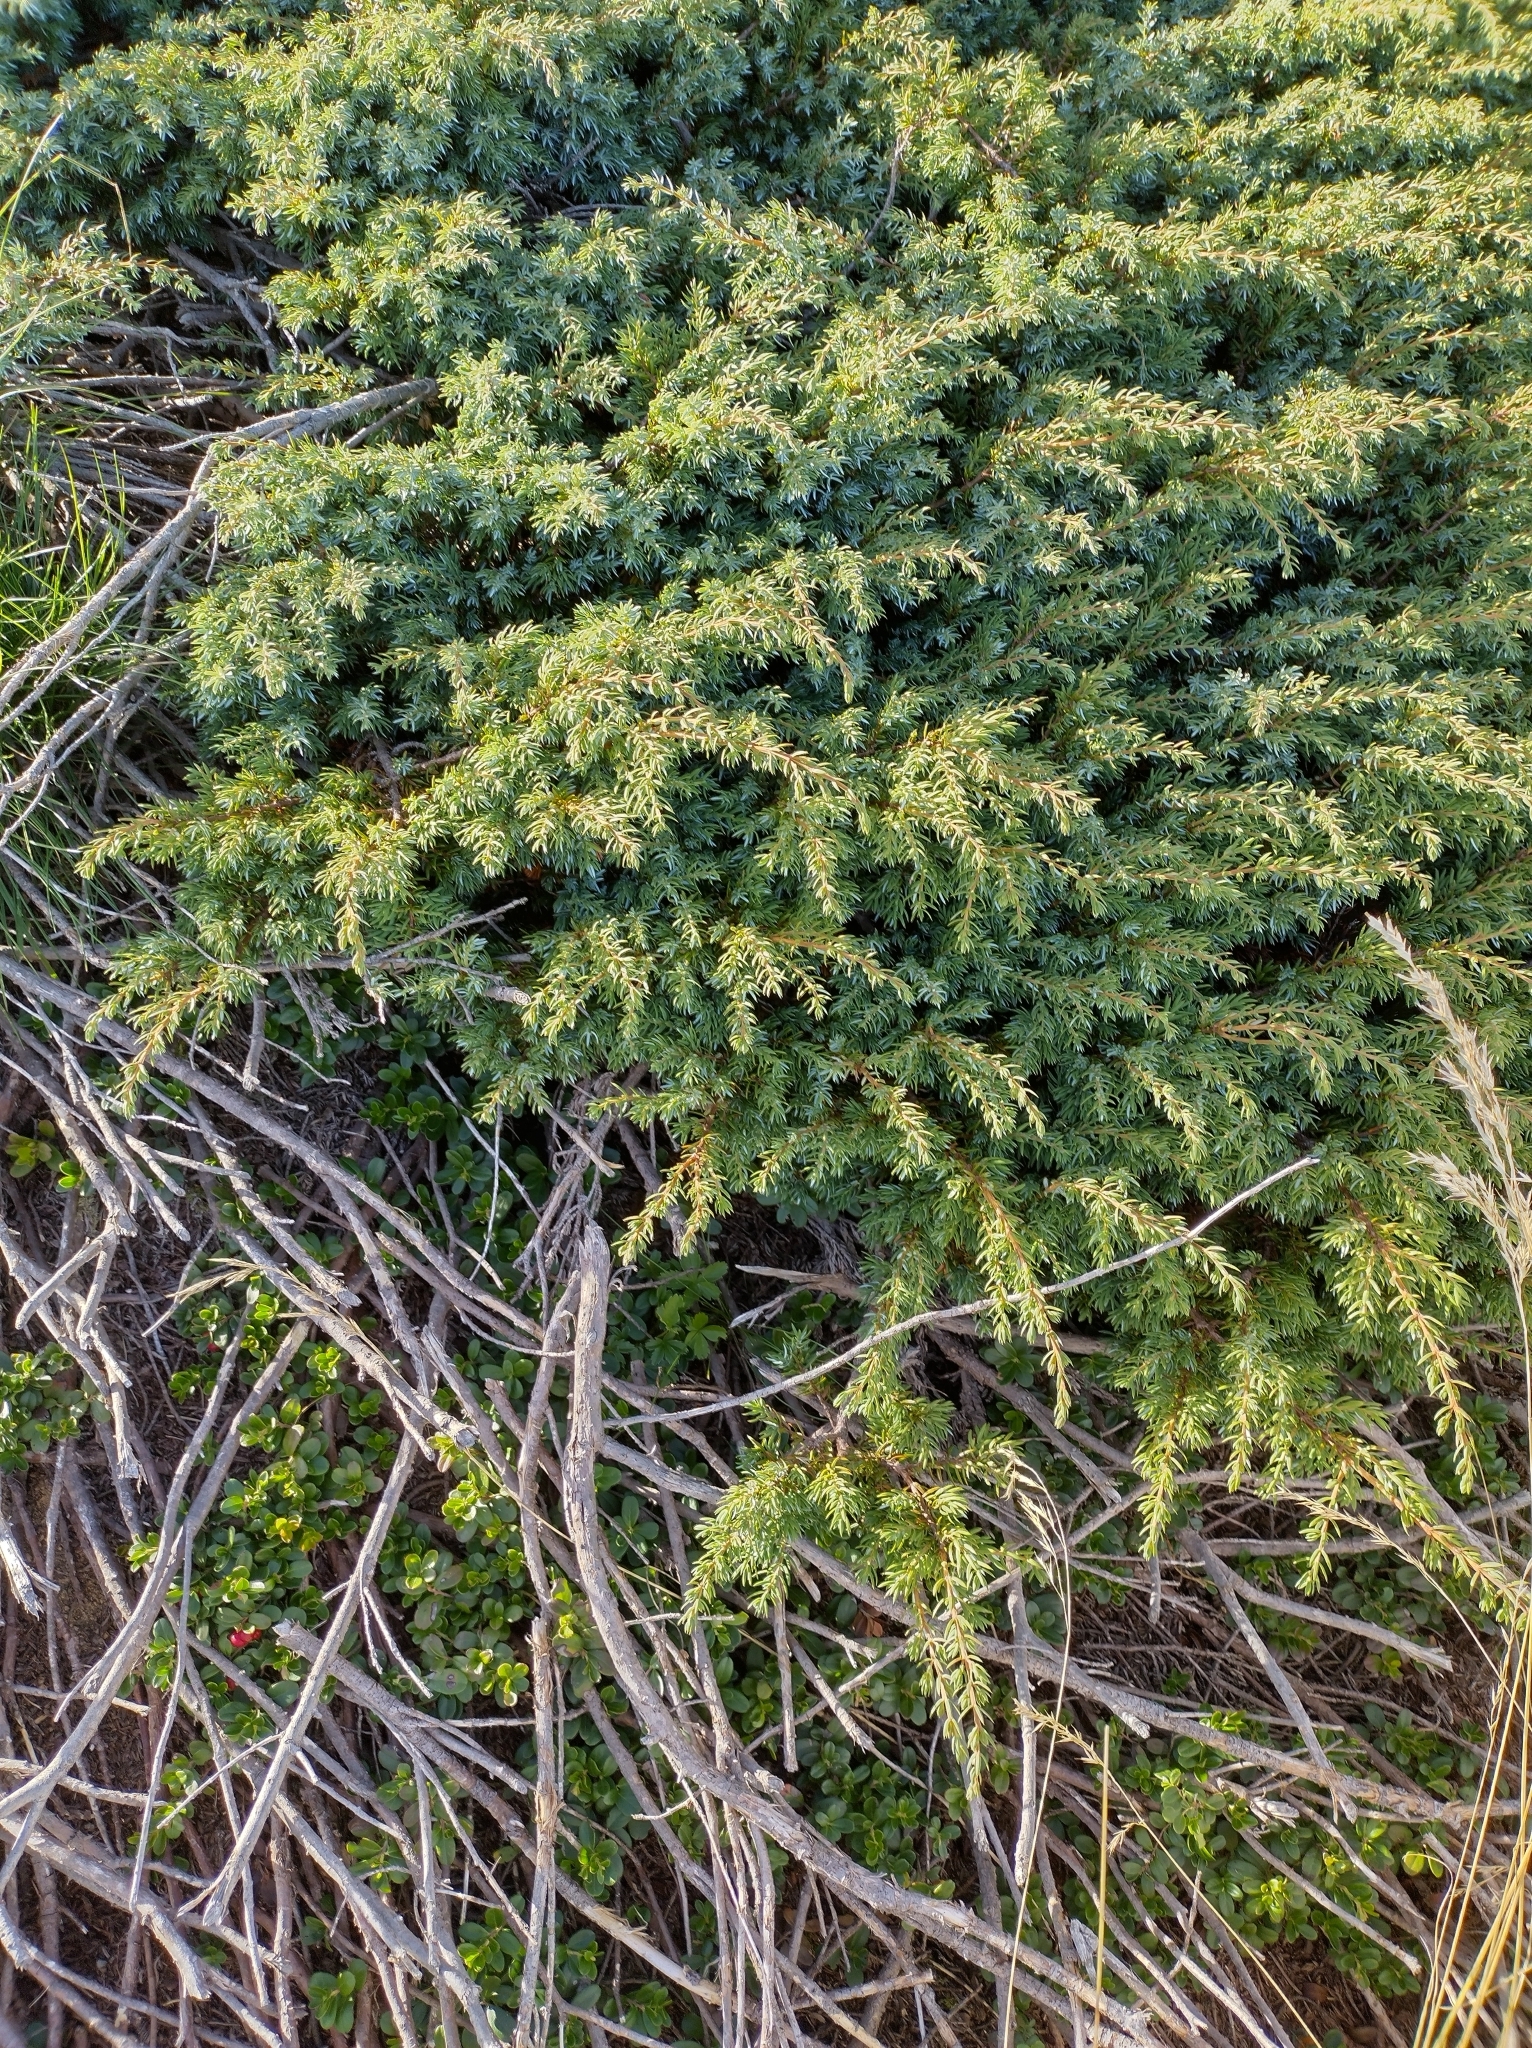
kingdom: Plantae
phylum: Tracheophyta
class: Pinopsida
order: Pinales
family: Cupressaceae
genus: Juniperus
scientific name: Juniperus communis
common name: Common juniper
